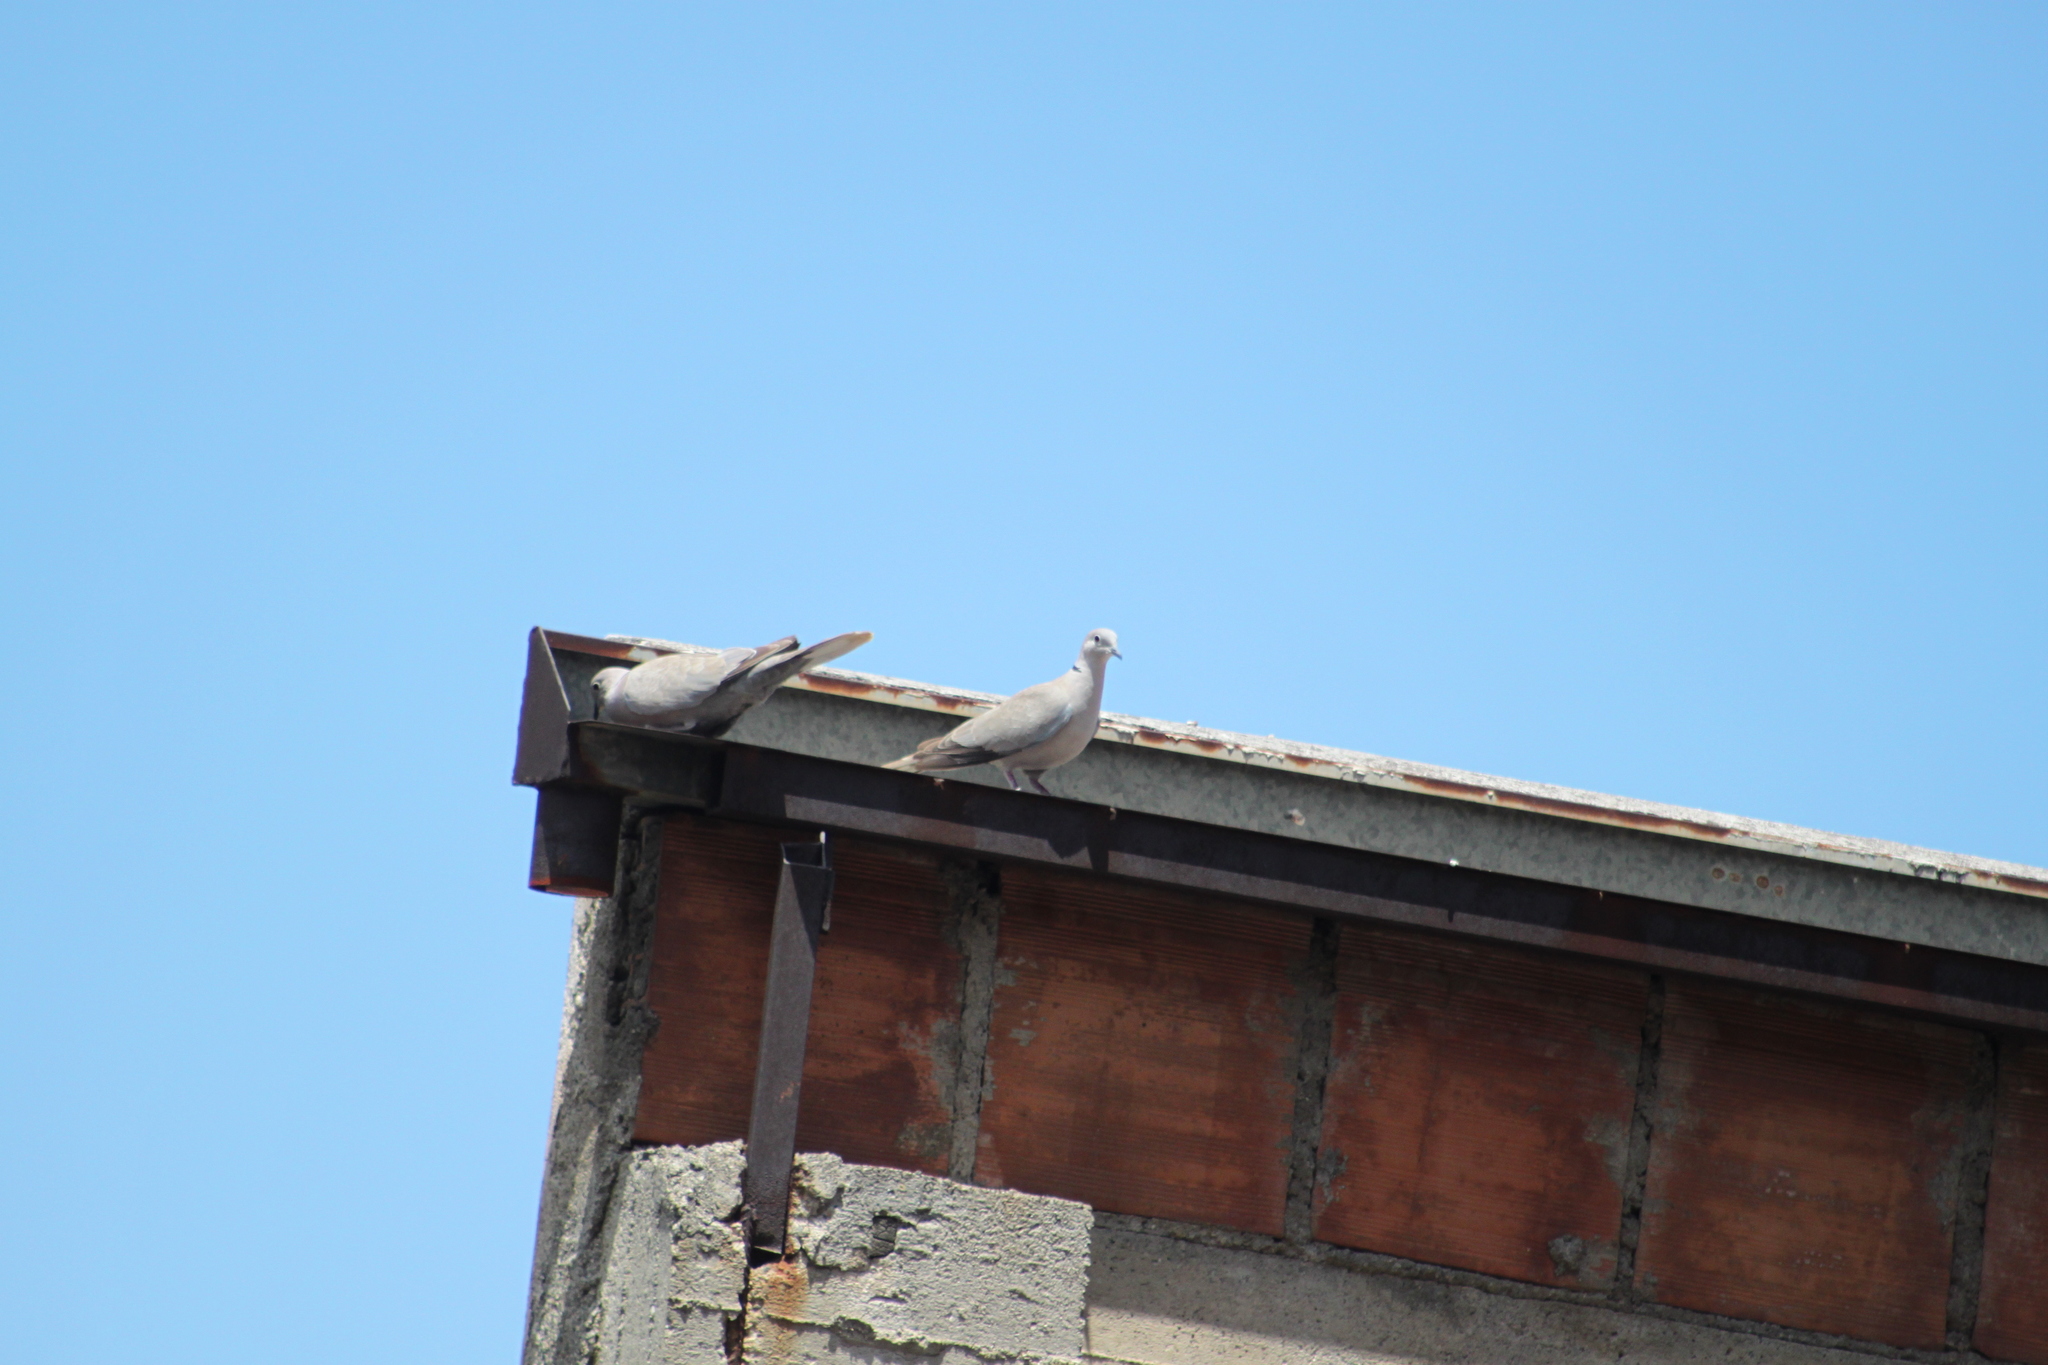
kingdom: Animalia
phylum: Chordata
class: Aves
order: Columbiformes
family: Columbidae
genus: Streptopelia
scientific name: Streptopelia decaocto
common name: Eurasian collared dove
